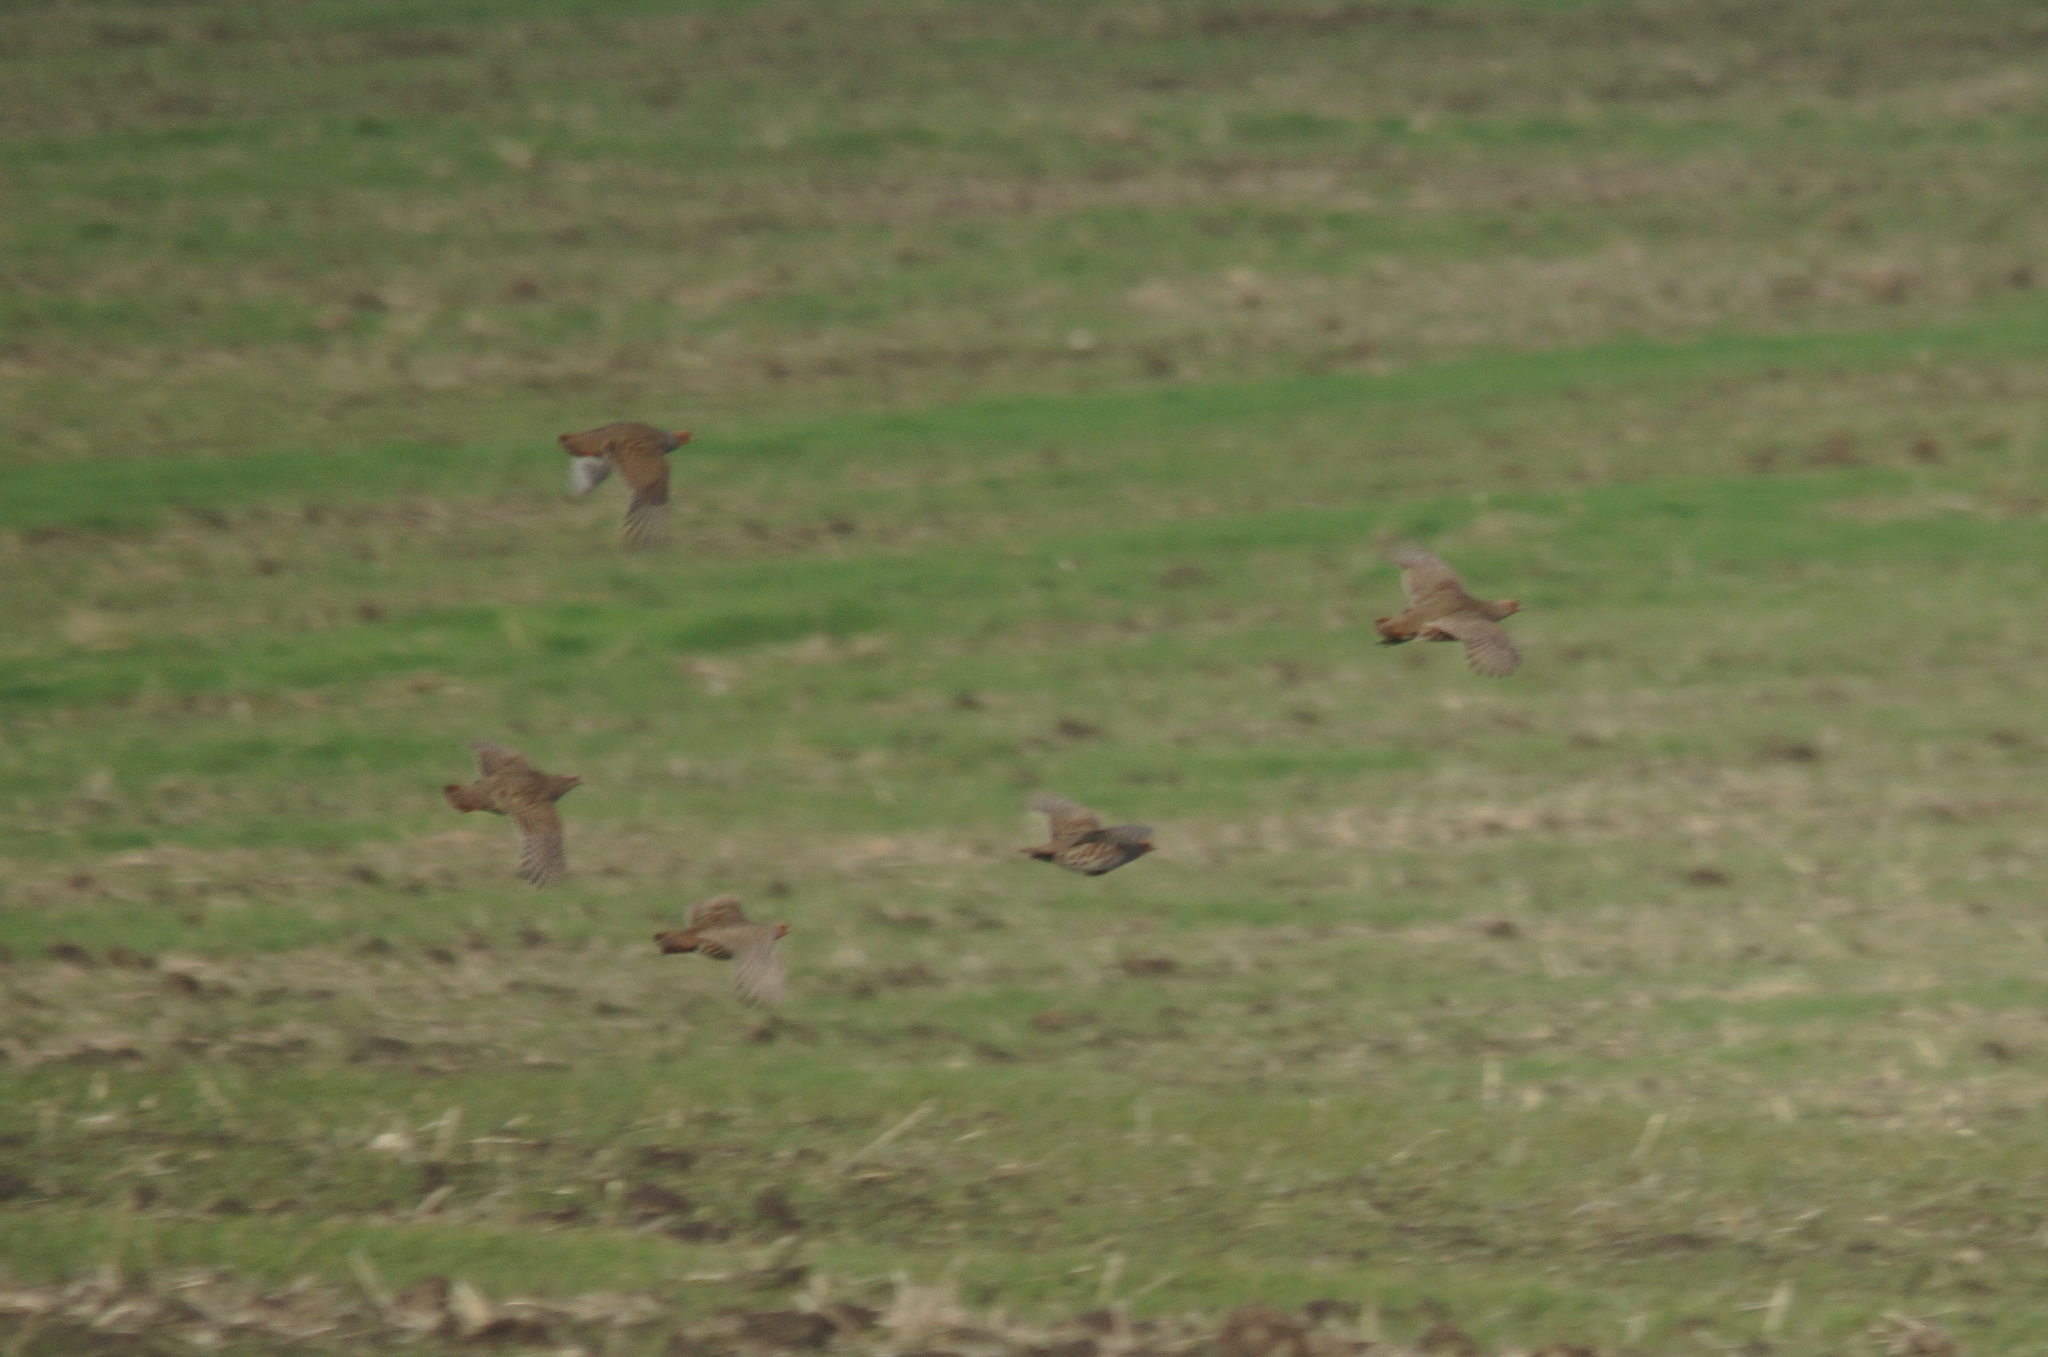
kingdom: Animalia
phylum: Chordata
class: Aves
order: Galliformes
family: Phasianidae
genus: Perdix
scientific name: Perdix perdix
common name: Grey partridge
